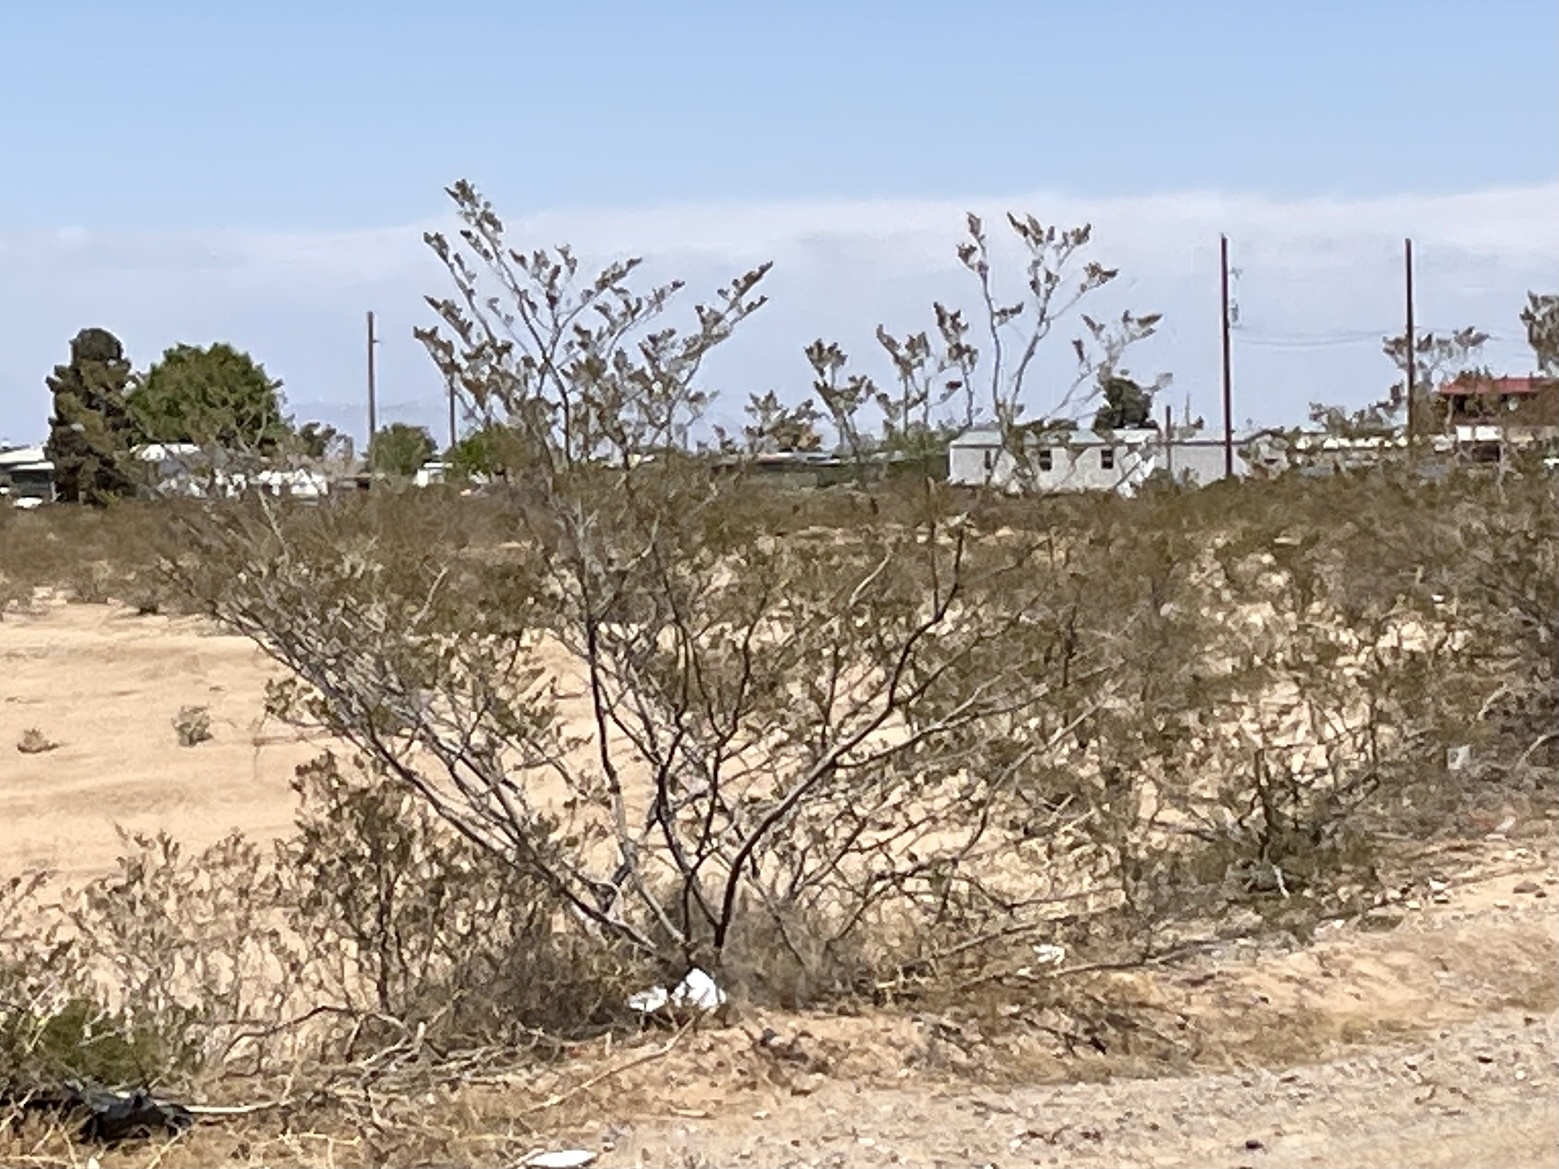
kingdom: Plantae
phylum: Tracheophyta
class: Magnoliopsida
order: Zygophyllales
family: Zygophyllaceae
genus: Larrea
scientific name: Larrea tridentata
